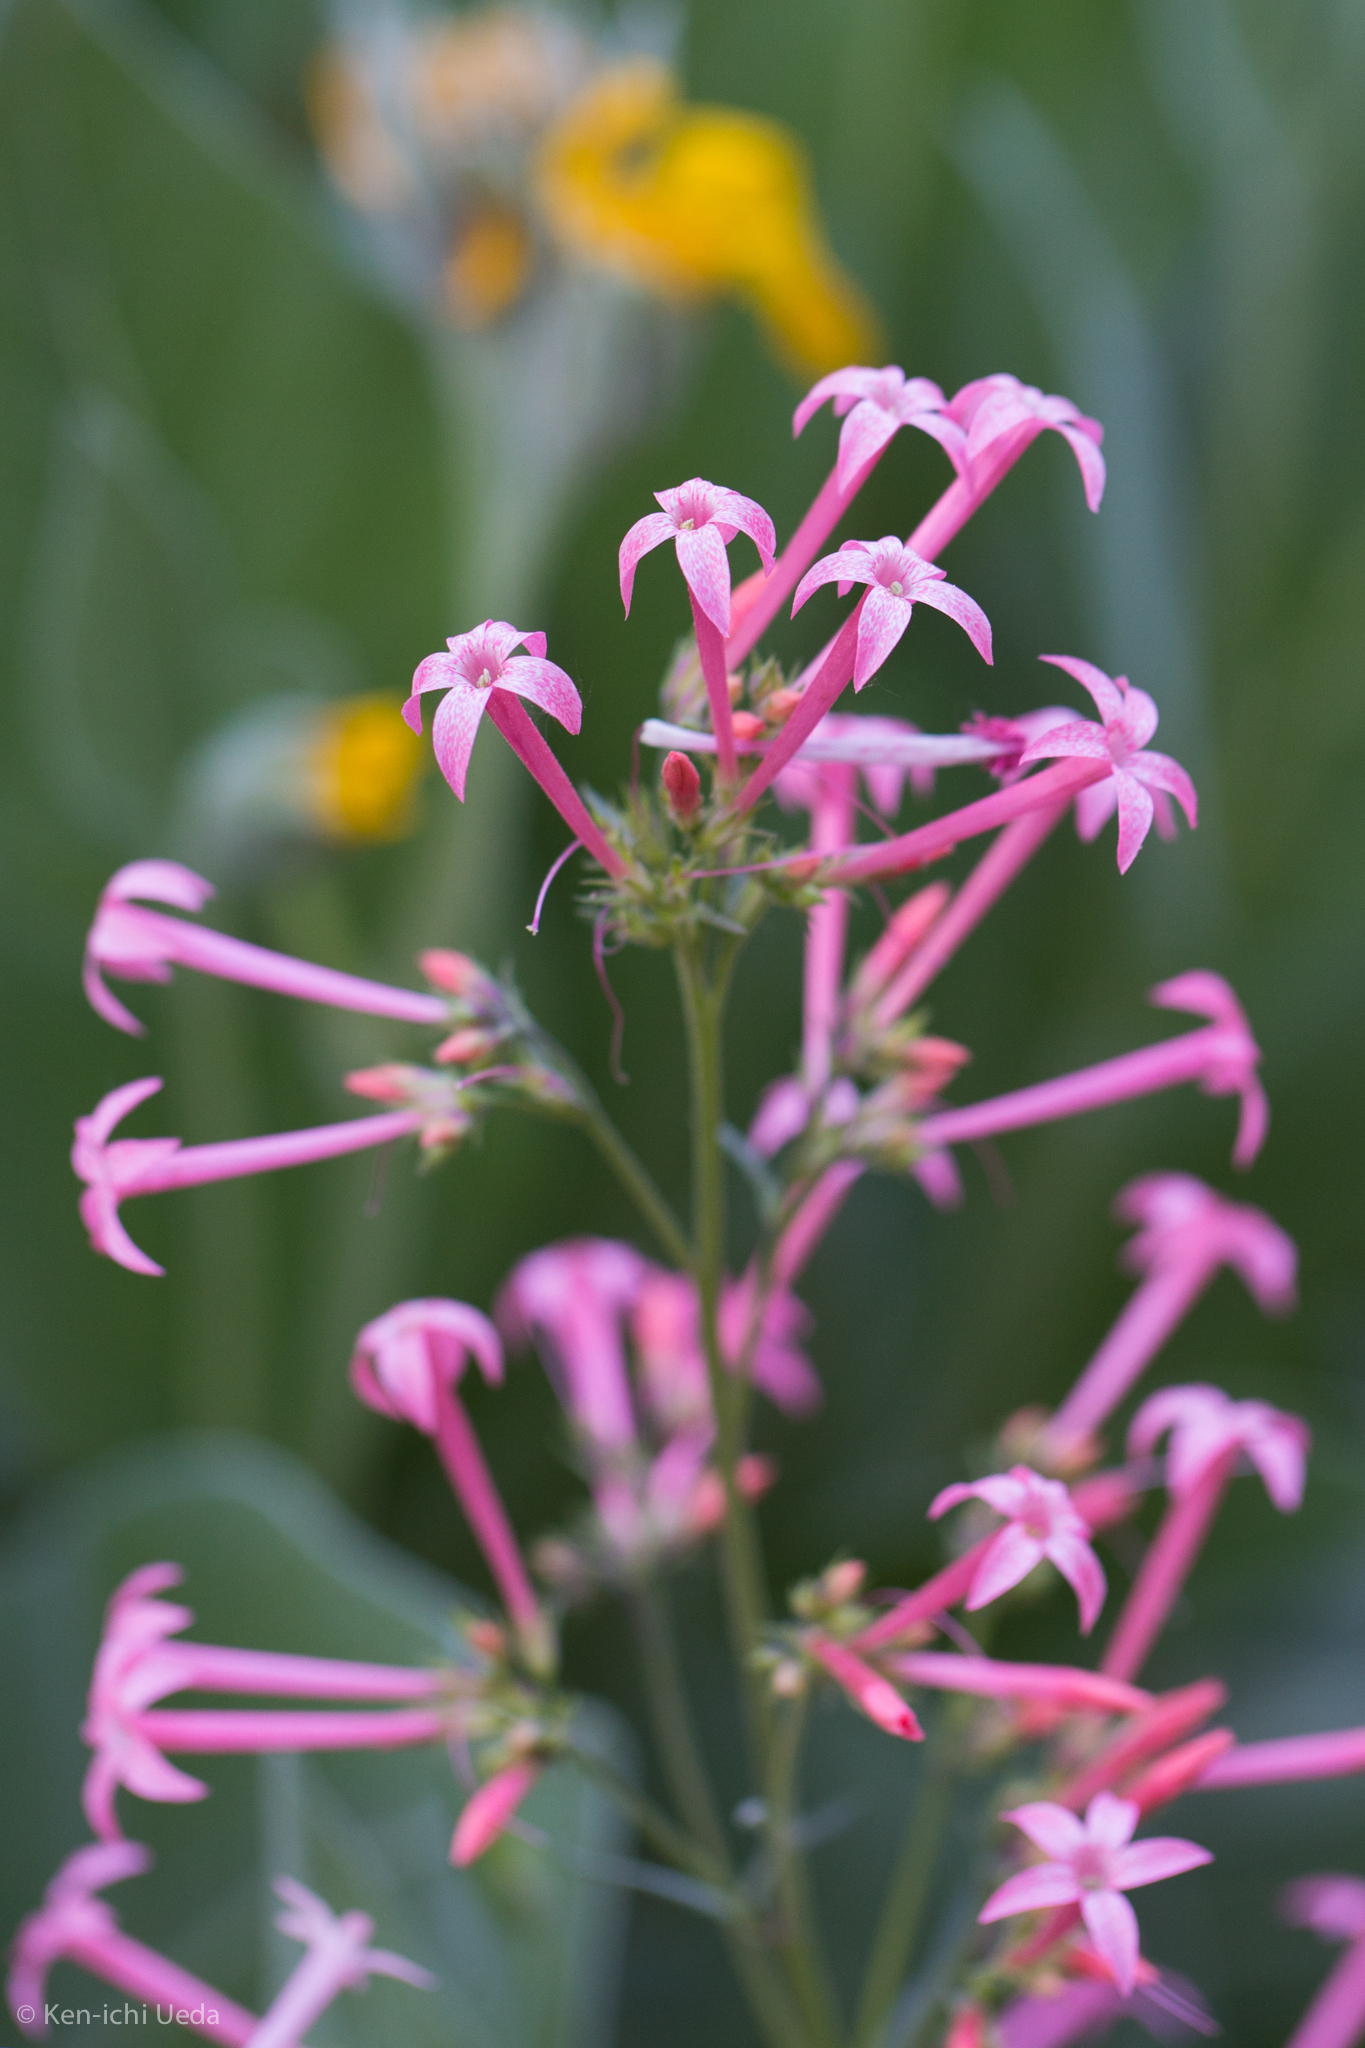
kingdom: Plantae
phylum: Tracheophyta
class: Magnoliopsida
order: Ericales
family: Polemoniaceae
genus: Ipomopsis
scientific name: Ipomopsis tenuituba
